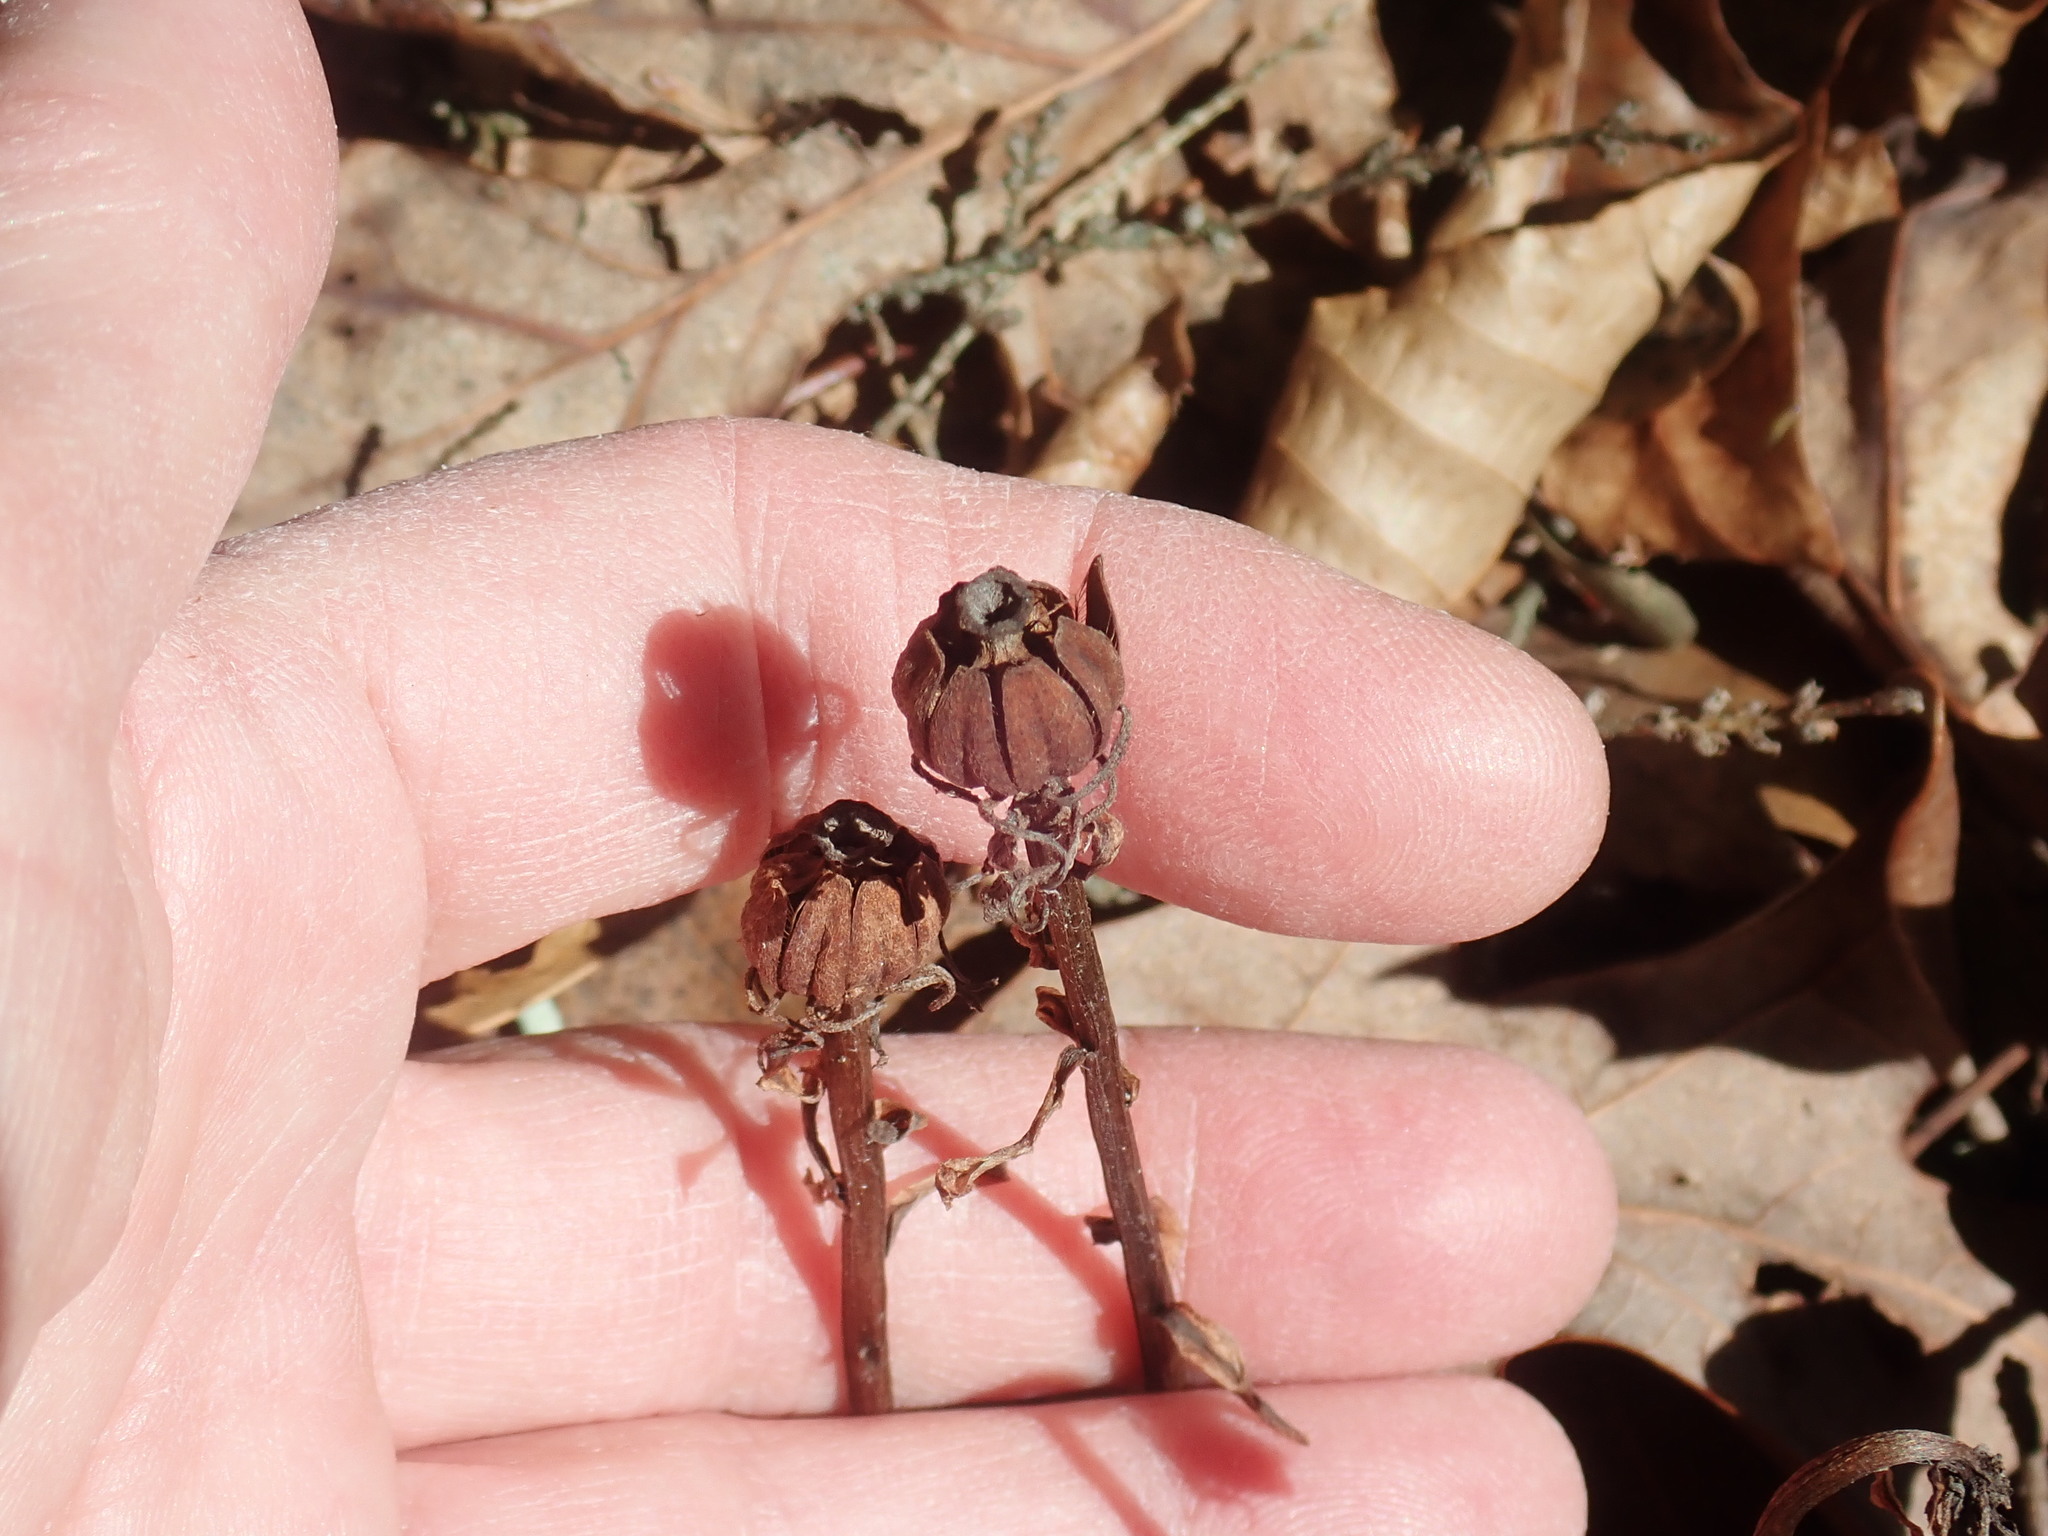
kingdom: Plantae
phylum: Tracheophyta
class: Magnoliopsida
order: Ericales
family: Ericaceae
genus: Monotropa
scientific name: Monotropa uniflora
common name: Convulsion root
